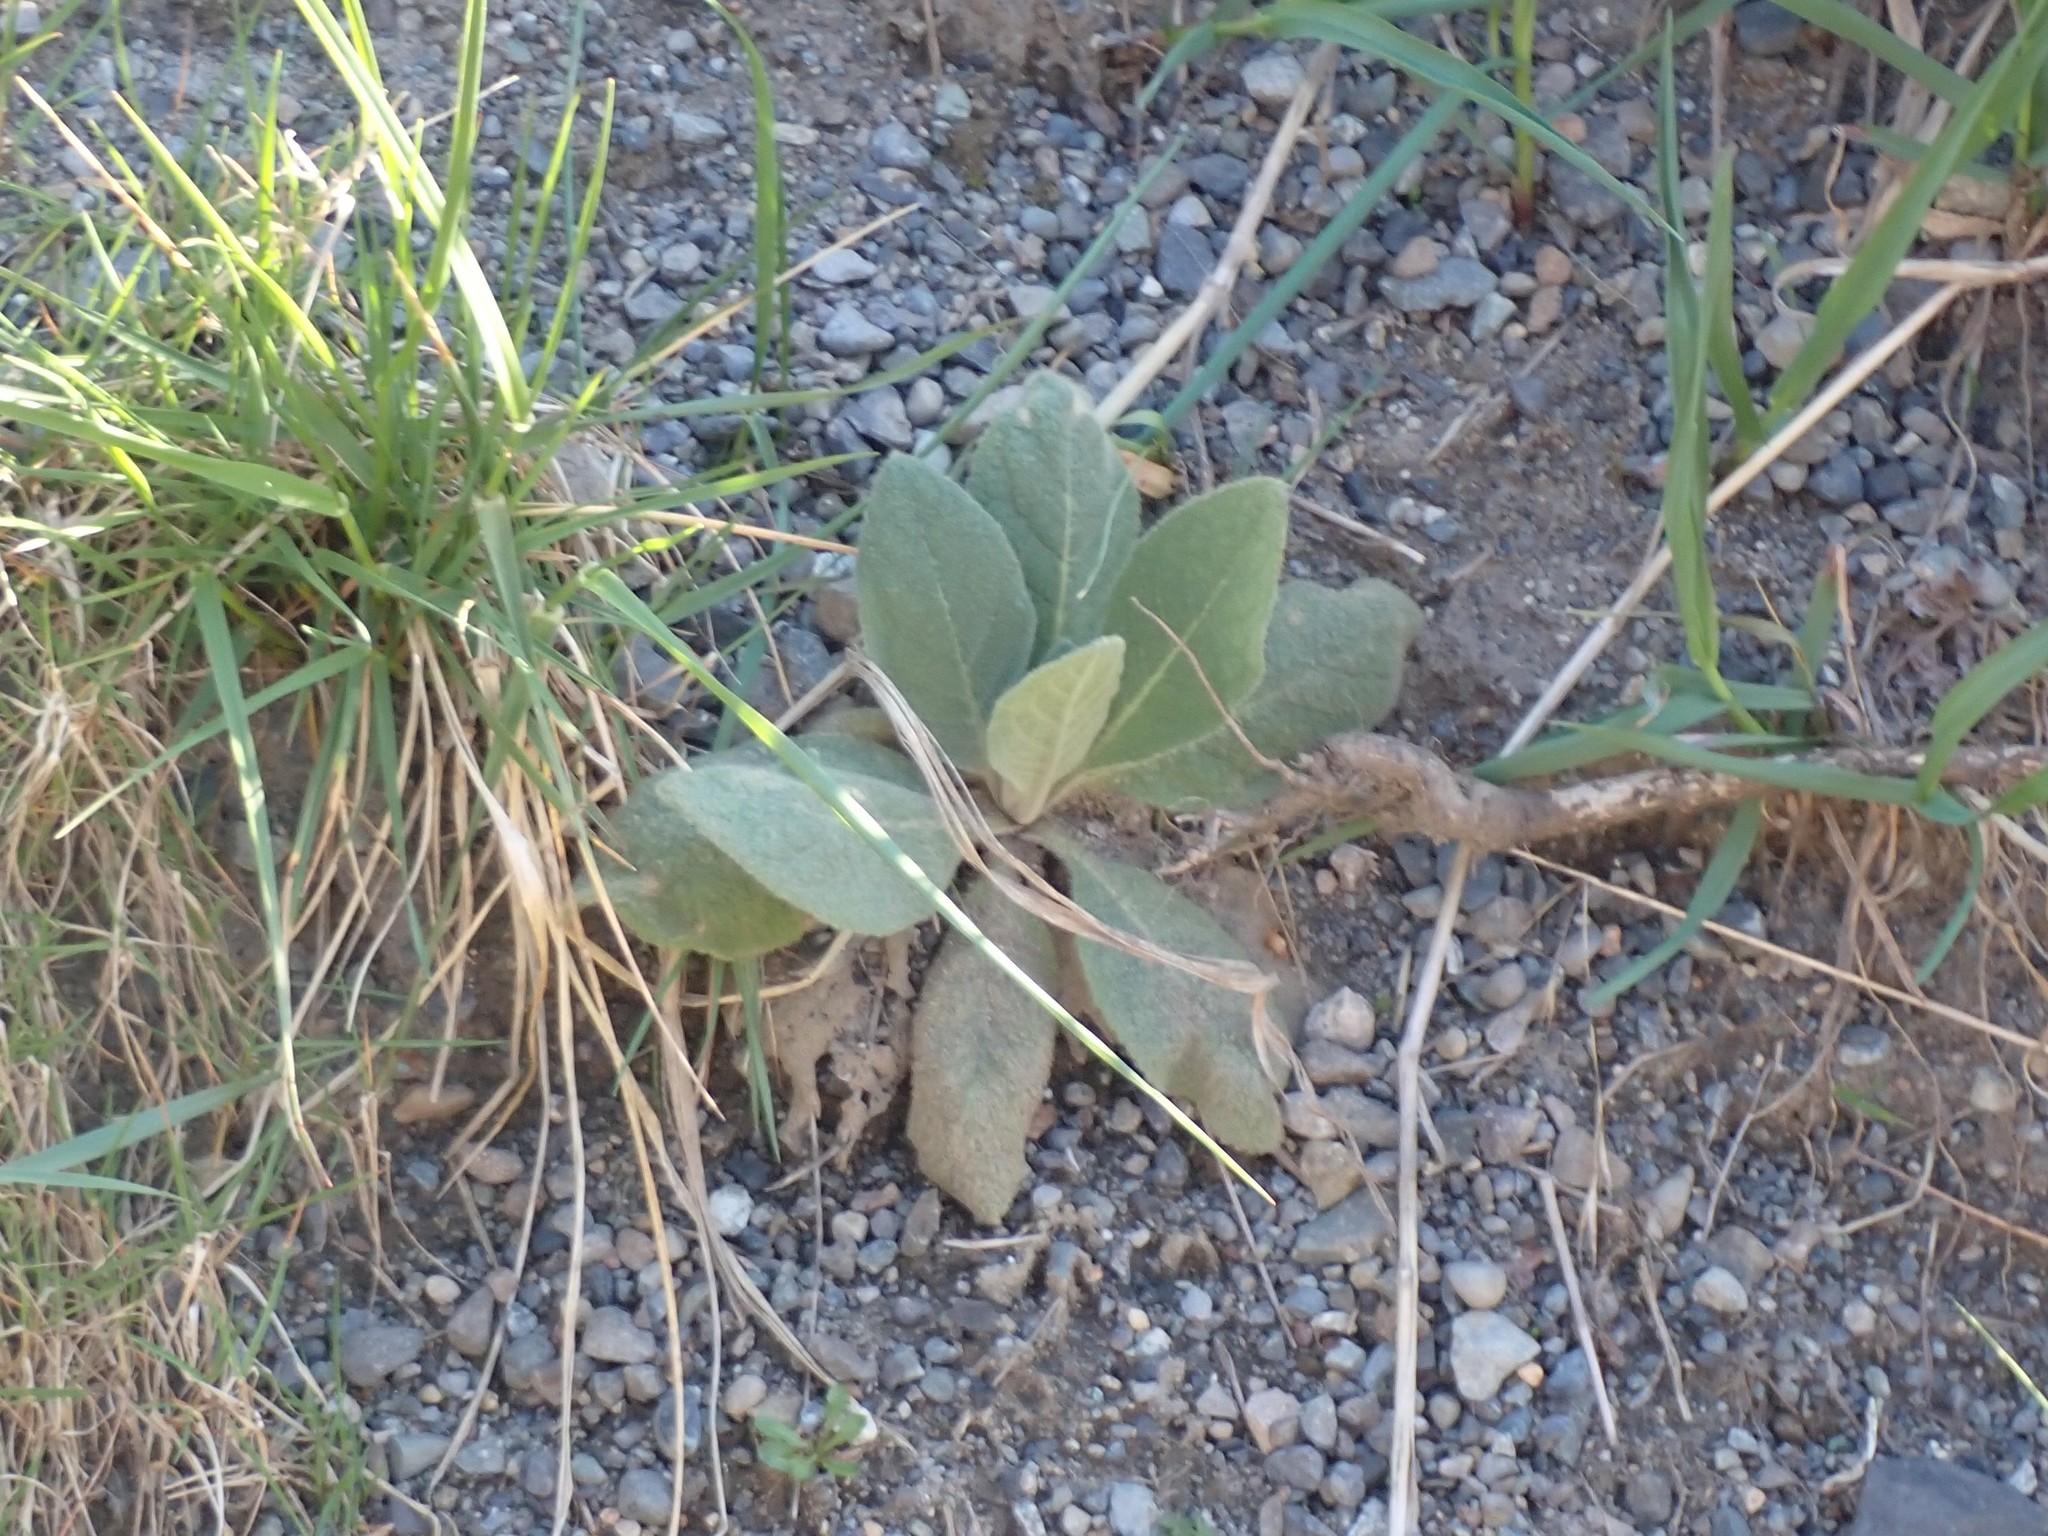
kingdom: Plantae
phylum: Tracheophyta
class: Magnoliopsida
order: Lamiales
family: Scrophulariaceae
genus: Verbascum
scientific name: Verbascum thapsus
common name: Common mullein
